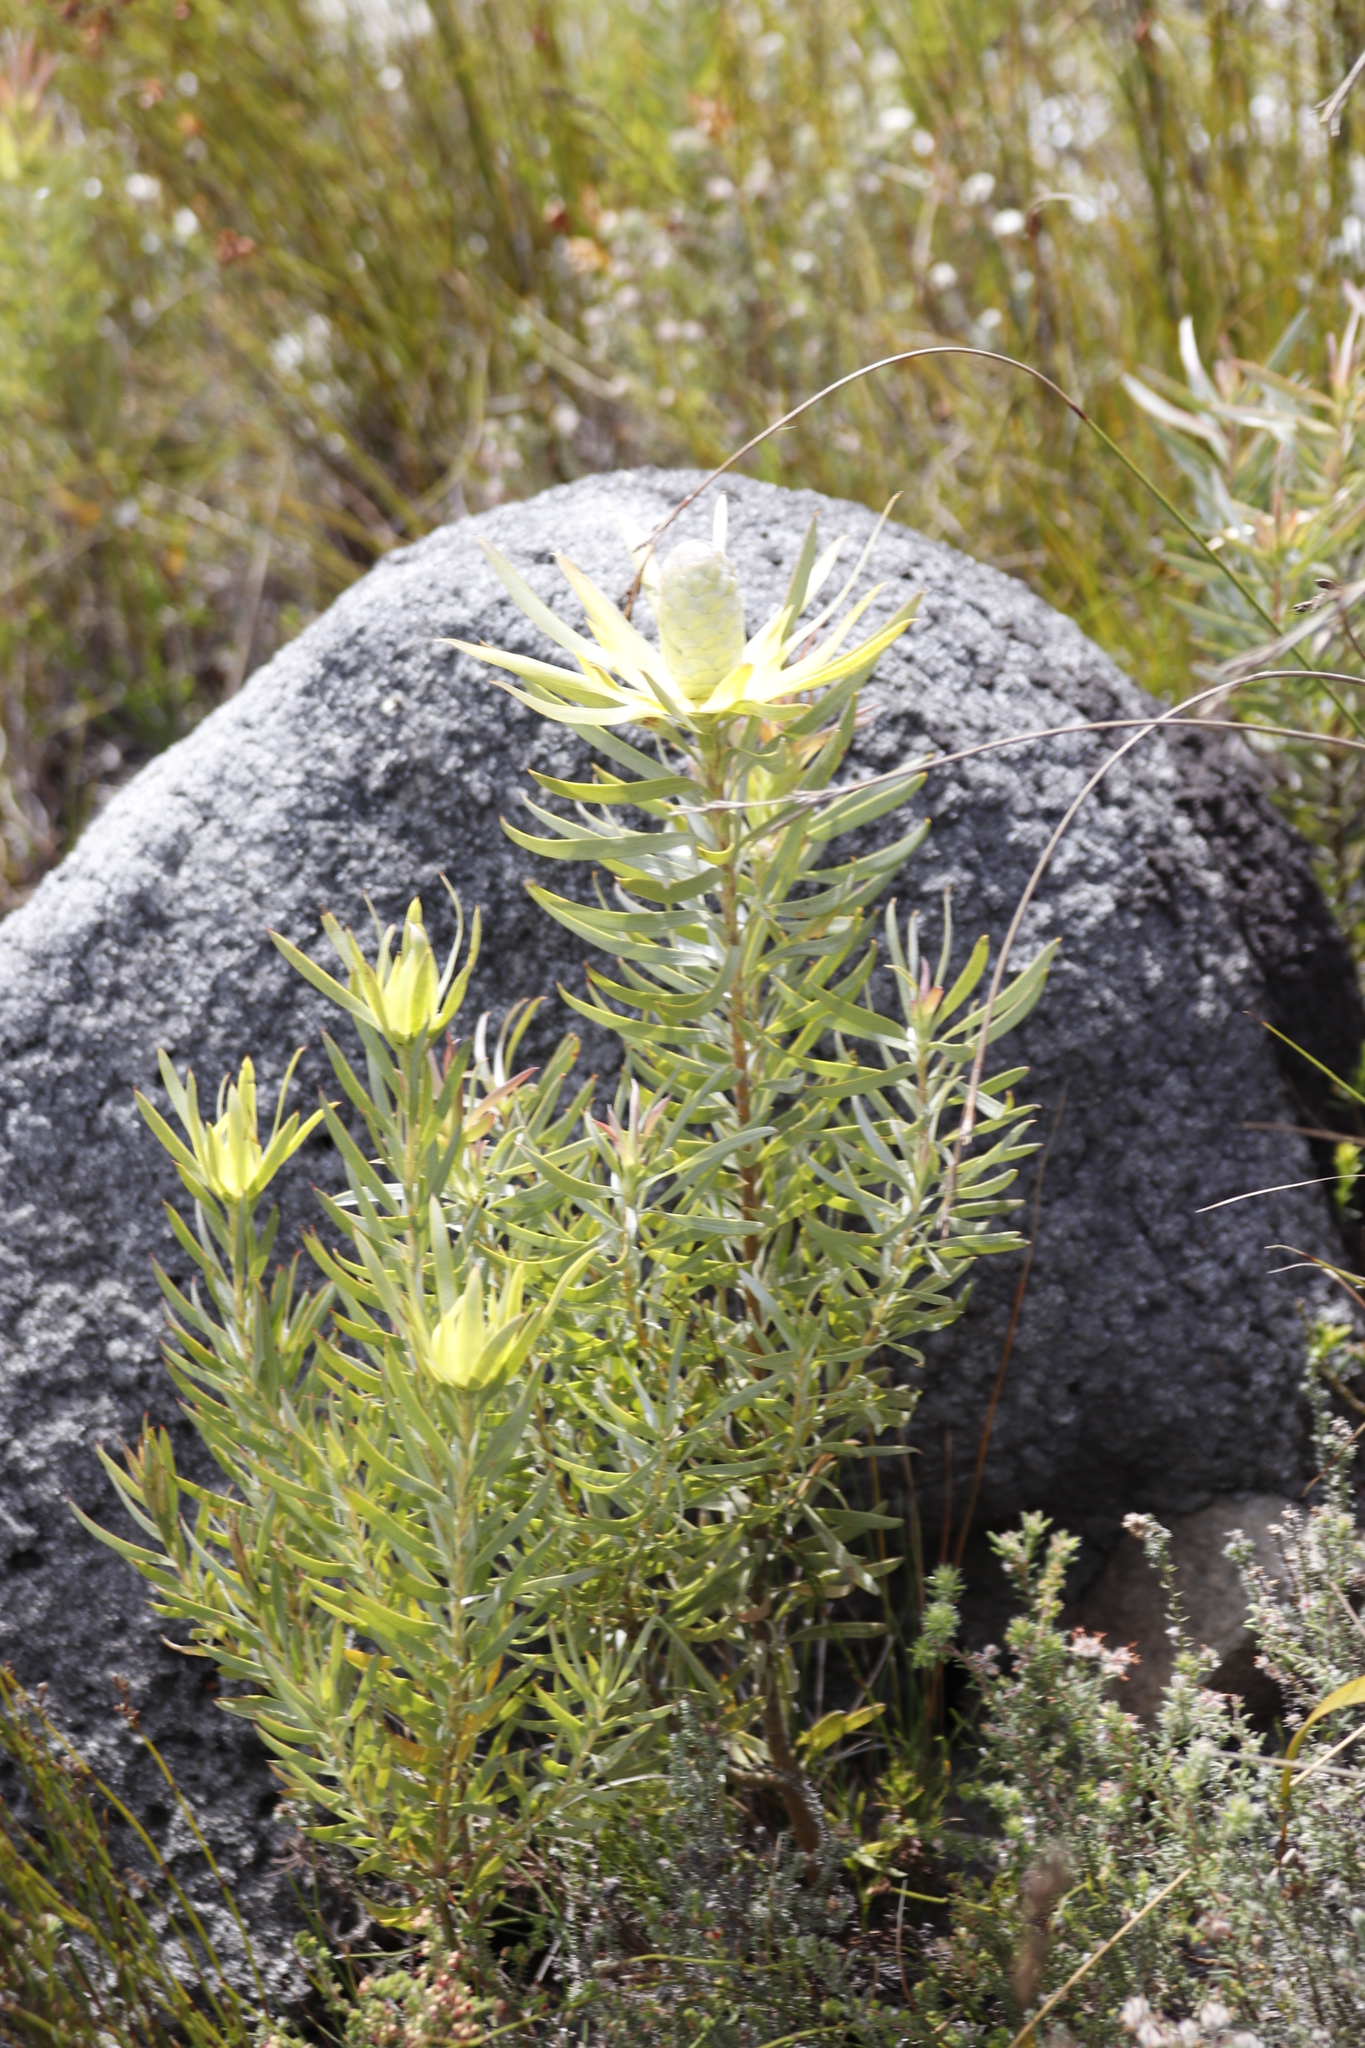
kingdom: Plantae
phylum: Tracheophyta
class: Magnoliopsida
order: Proteales
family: Proteaceae
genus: Leucadendron
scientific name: Leucadendron xanthoconus
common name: Sickle-leaf conebush
